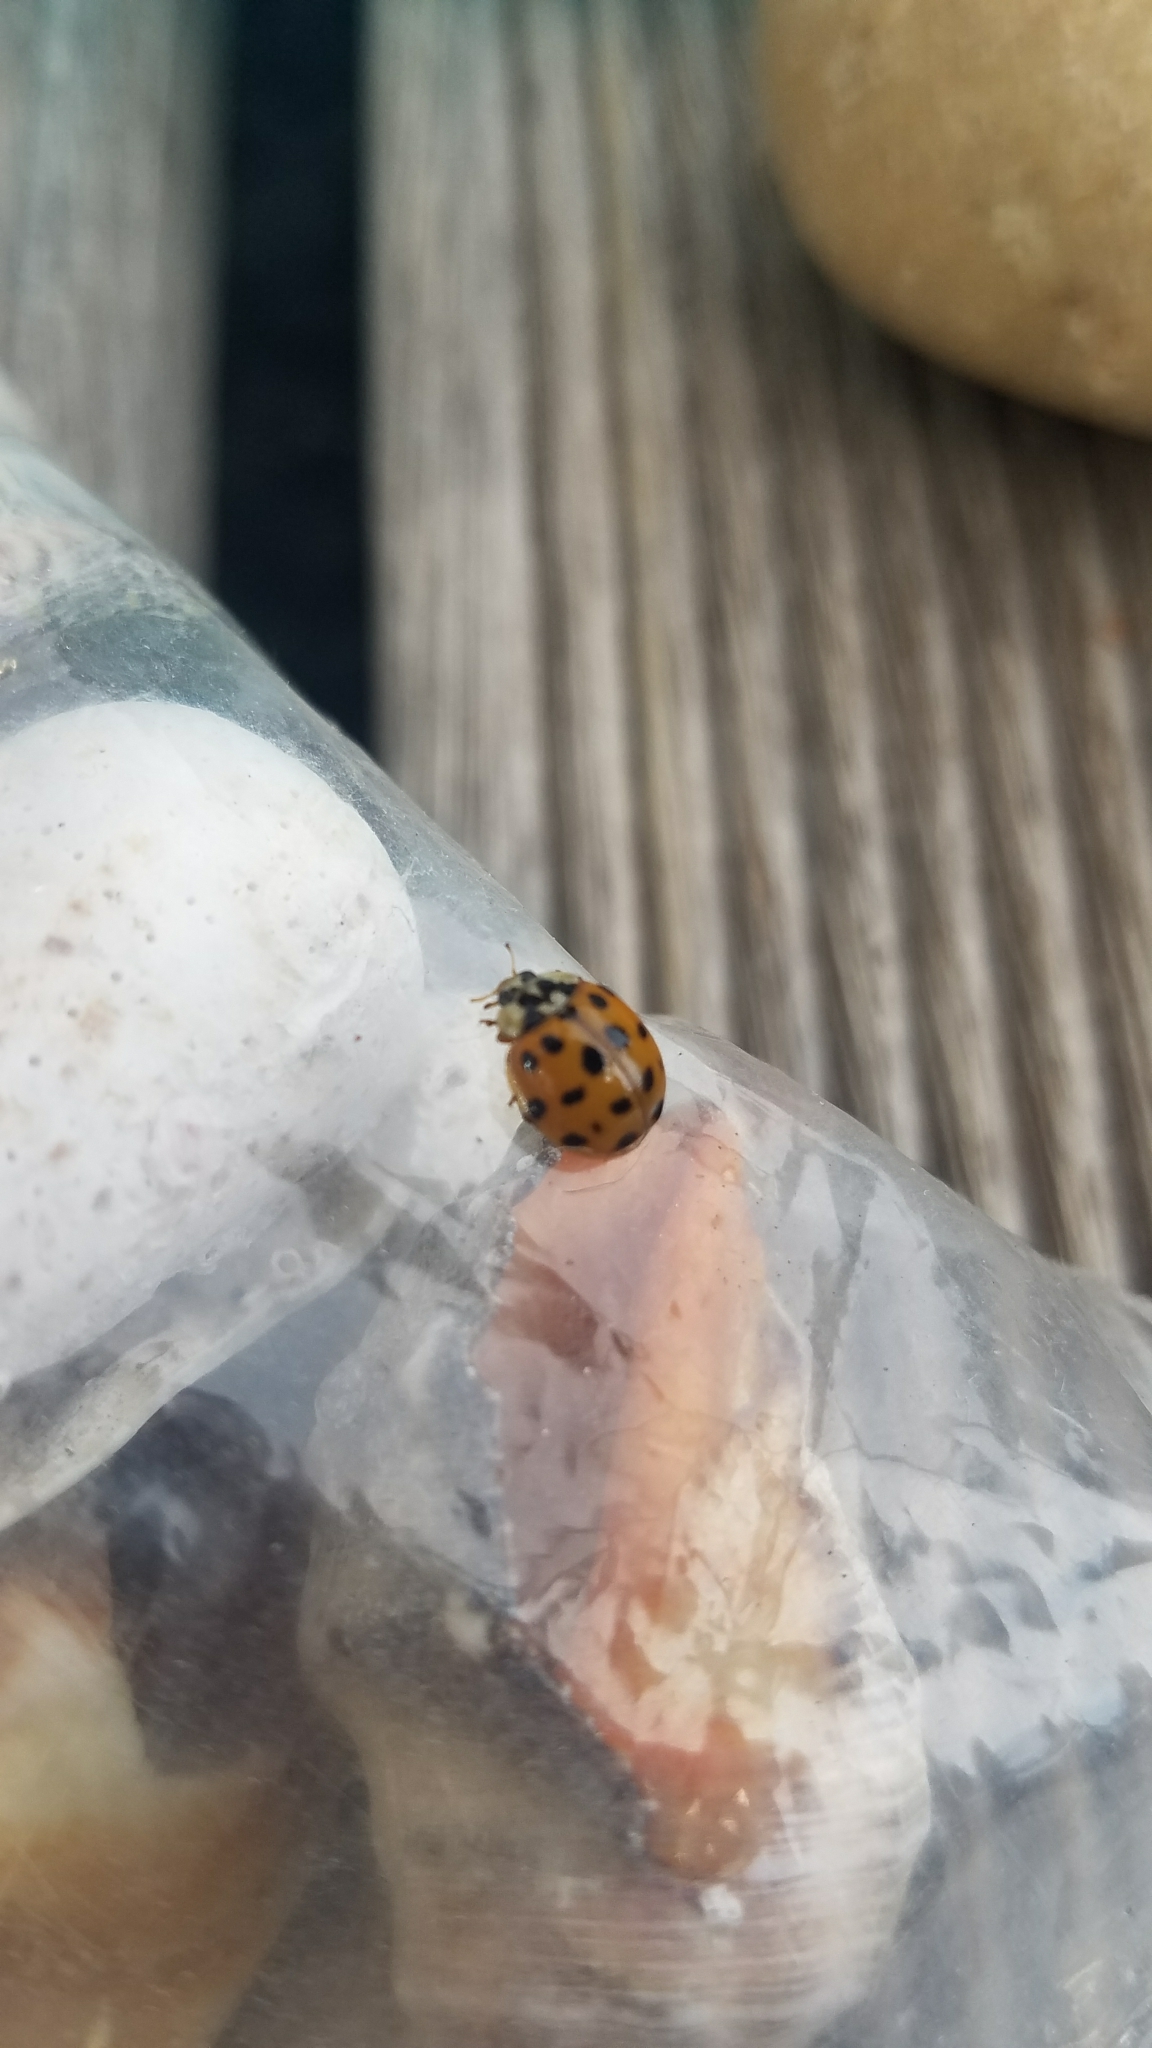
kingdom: Animalia
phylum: Arthropoda
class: Insecta
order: Coleoptera
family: Coccinellidae
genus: Harmonia
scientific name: Harmonia axyridis
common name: Harlequin ladybird
